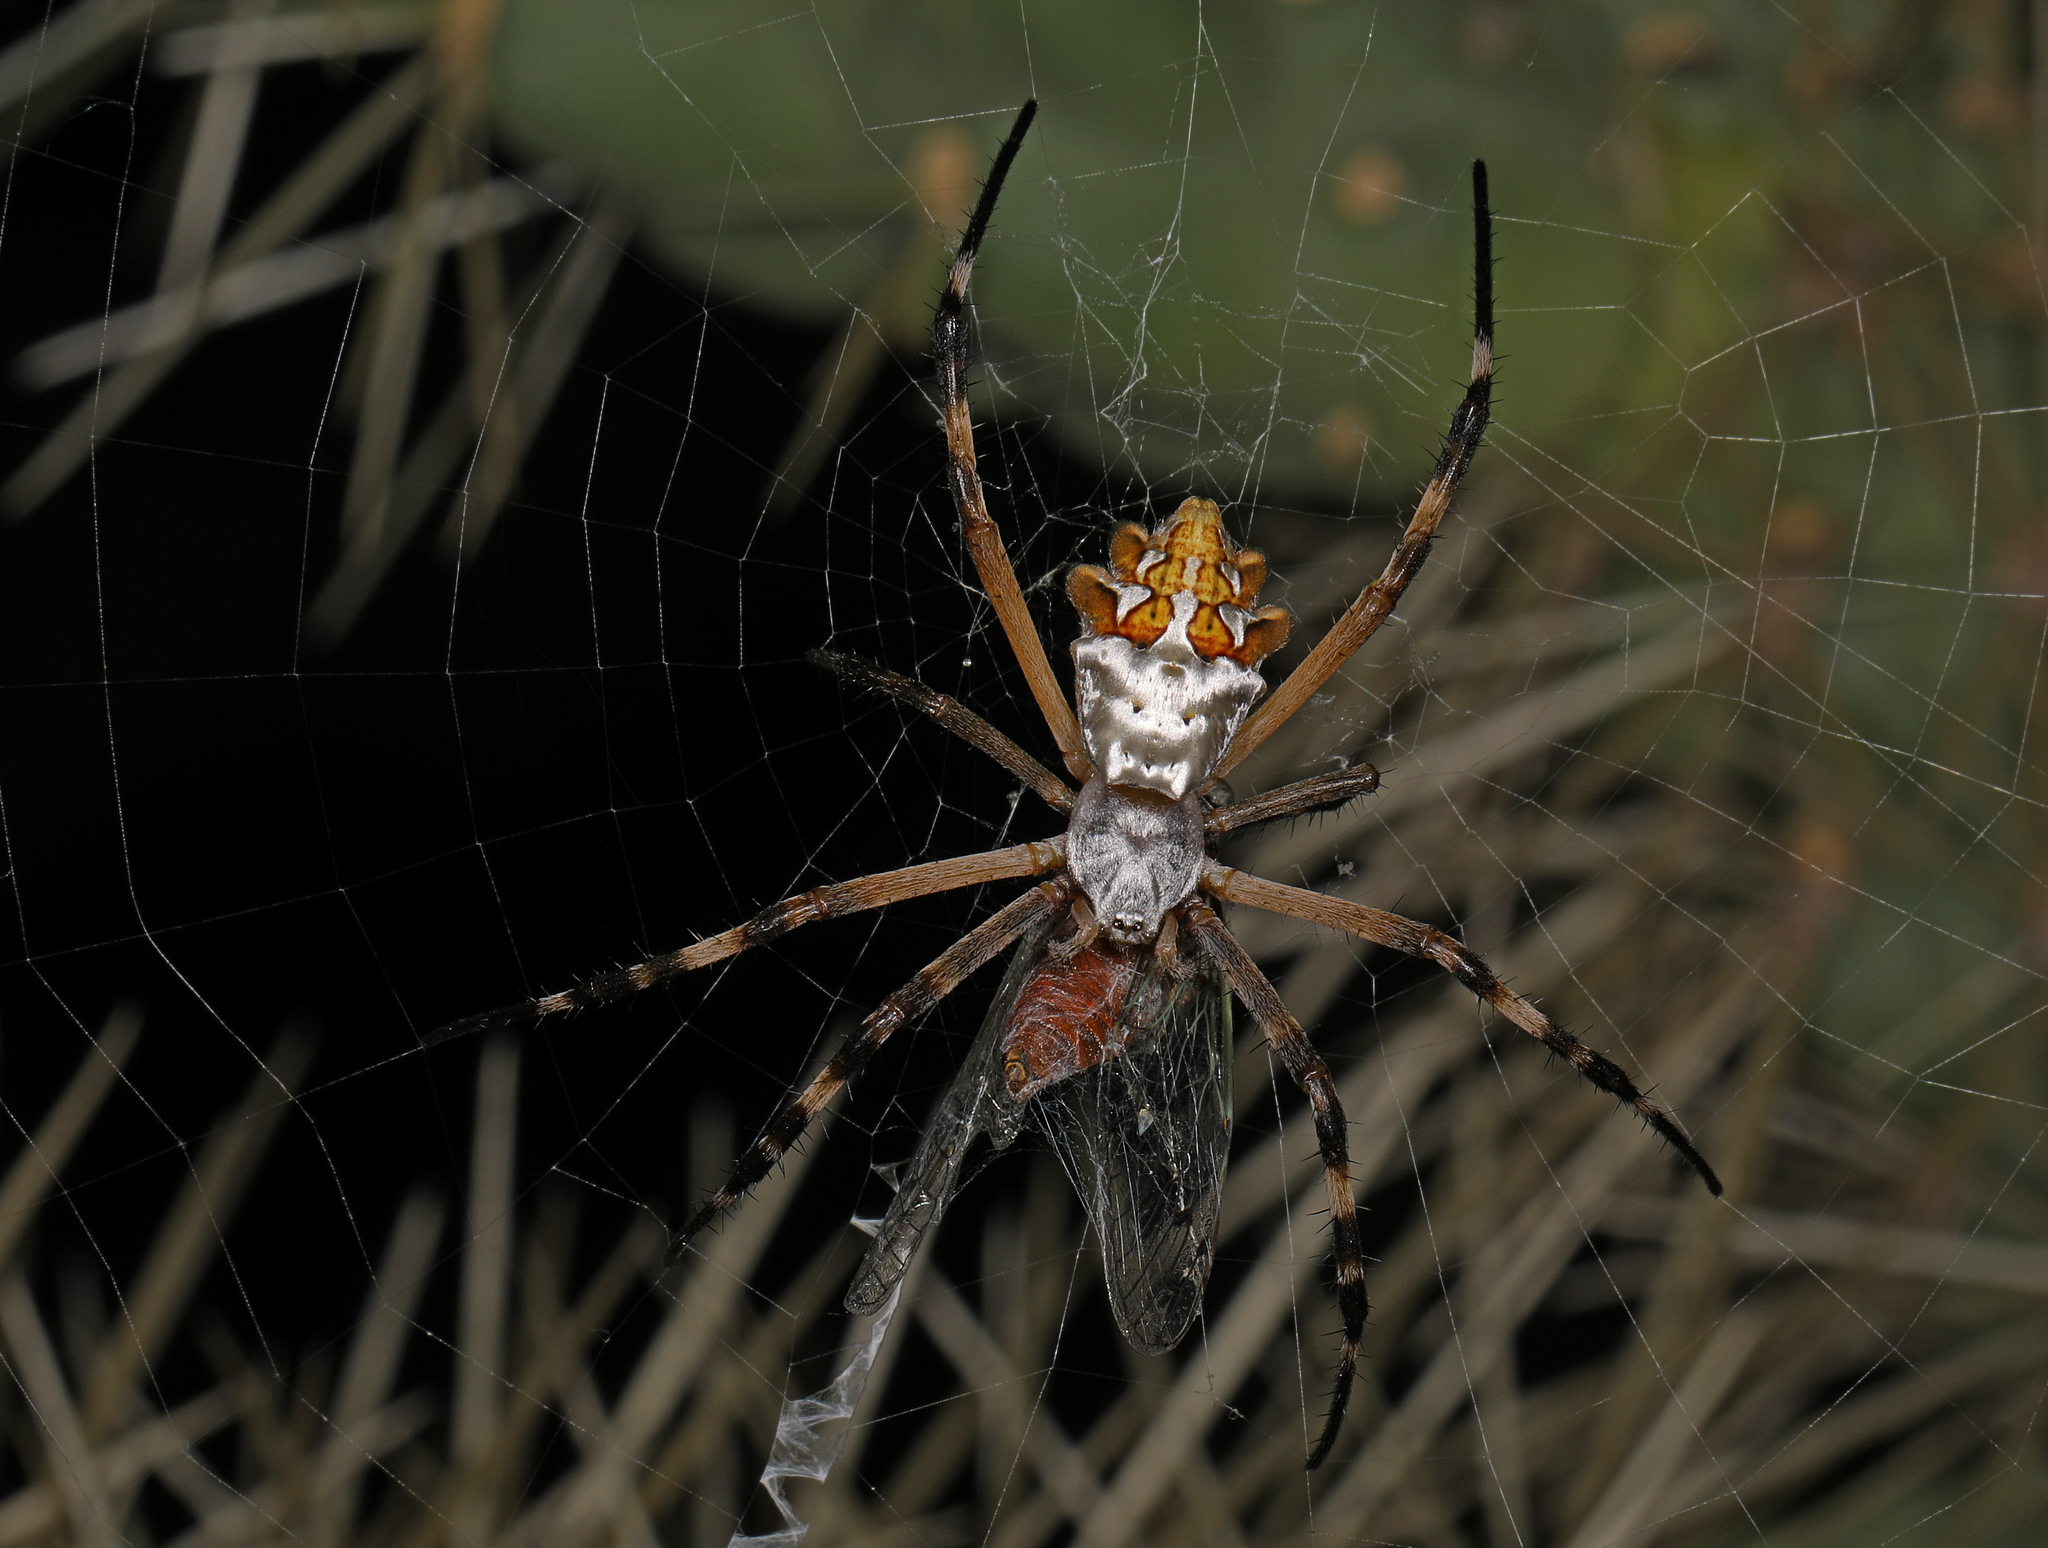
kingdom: Animalia
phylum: Arthropoda
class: Arachnida
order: Araneae
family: Araneidae
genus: Argiope
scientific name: Argiope argentata
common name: Orb weavers
